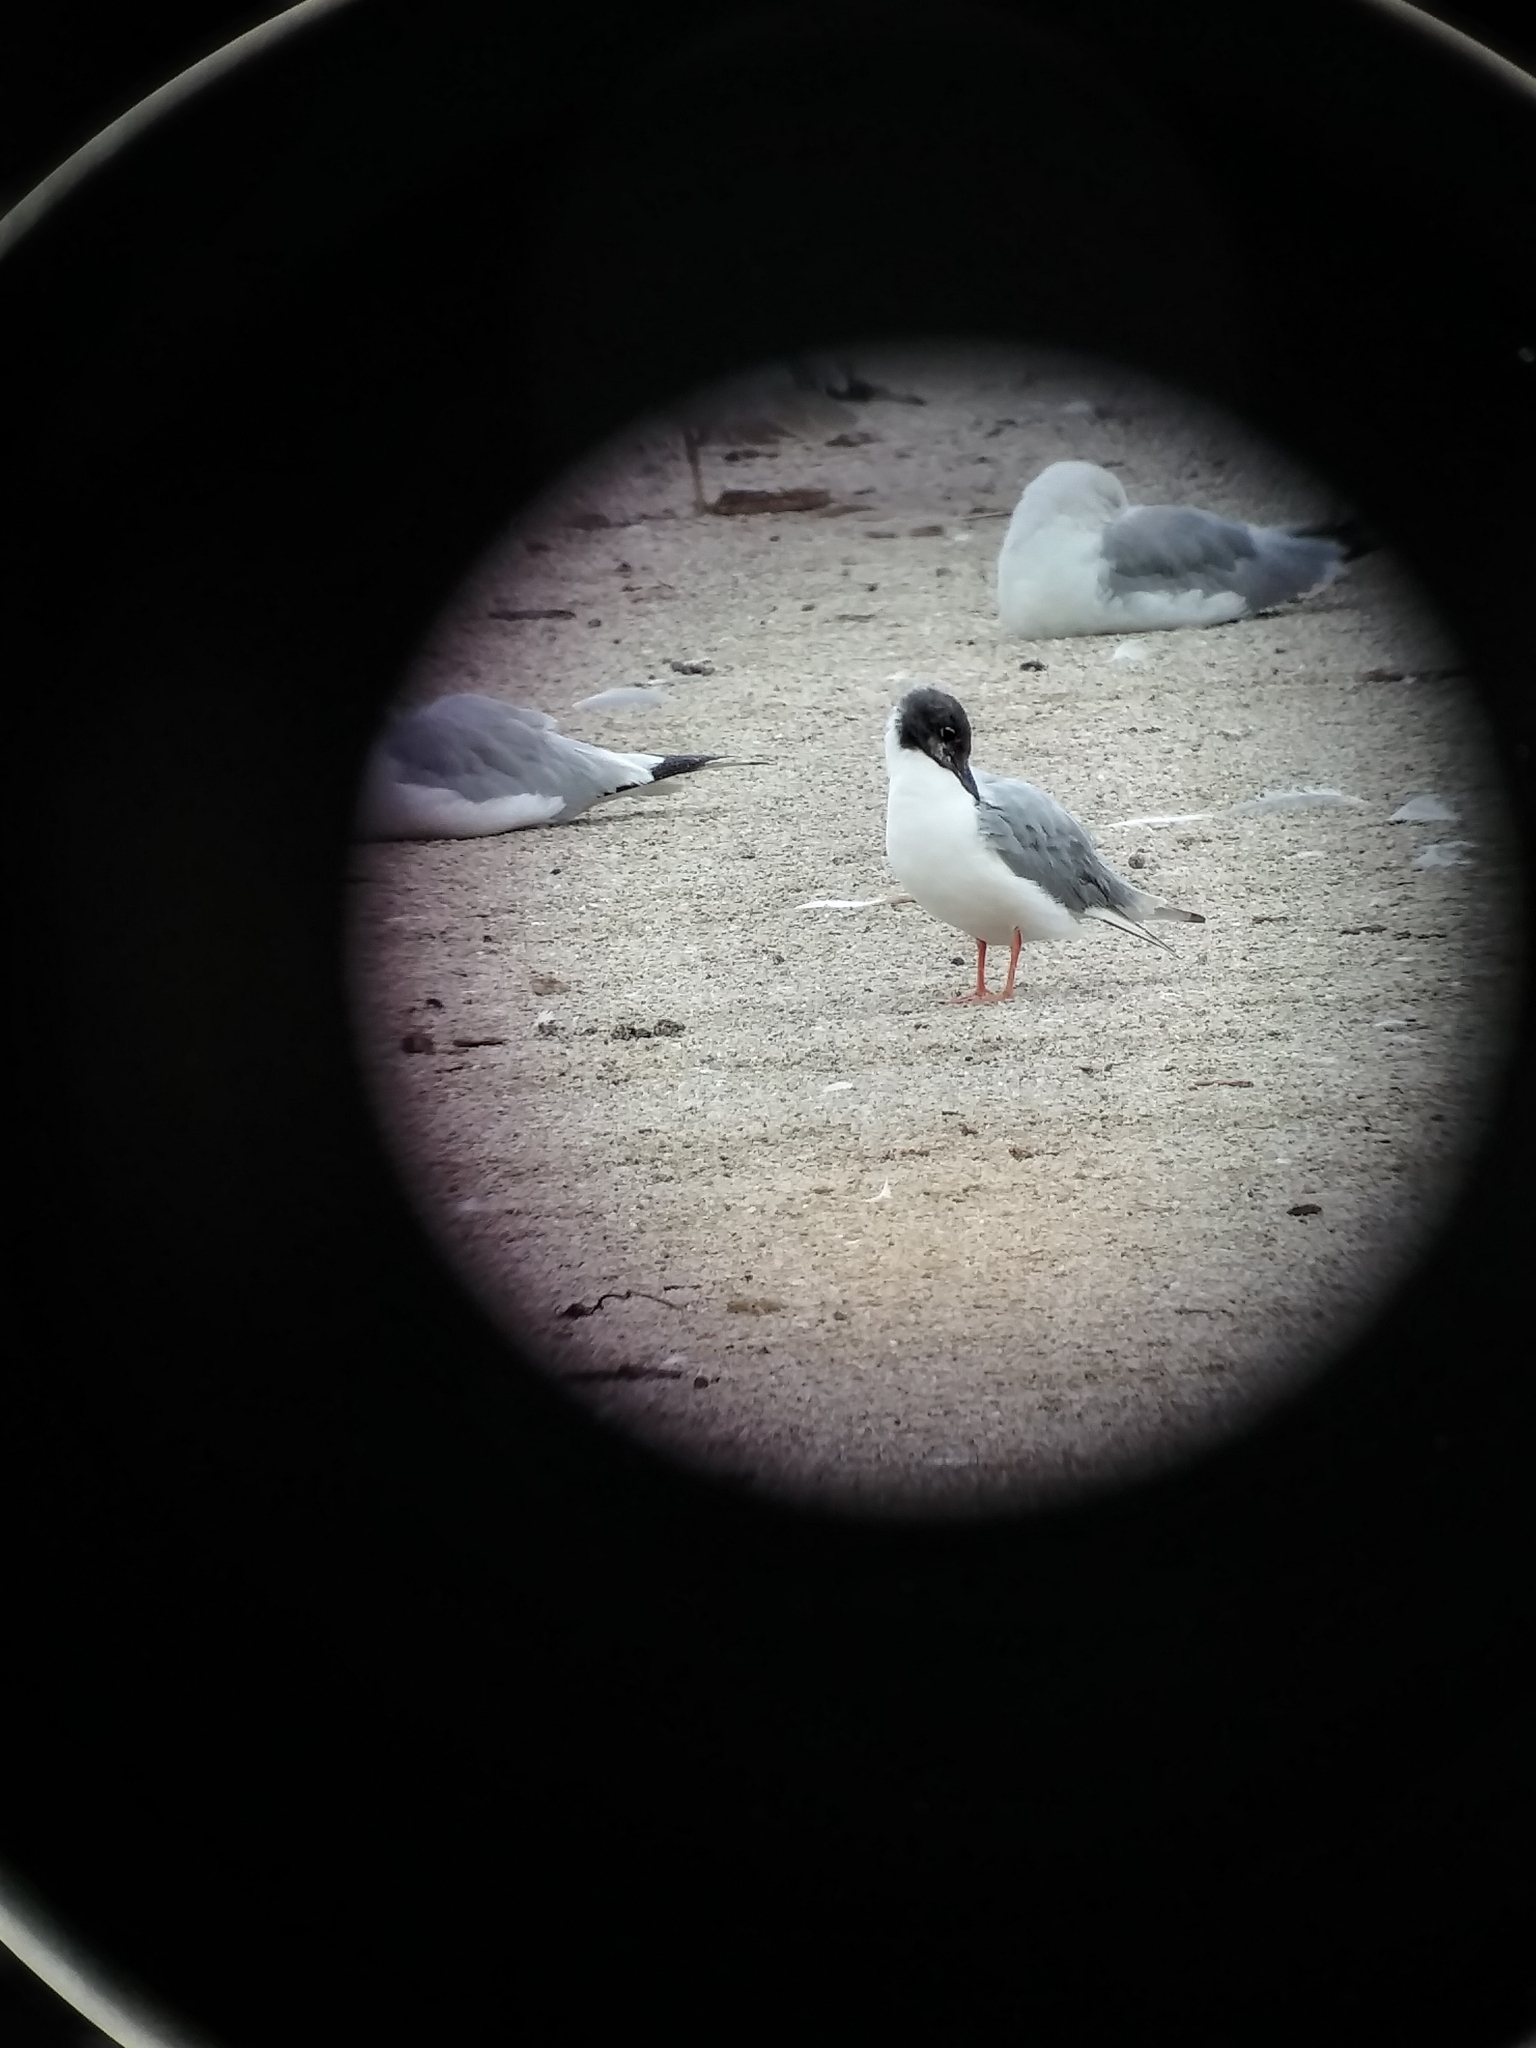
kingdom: Animalia
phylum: Chordata
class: Aves
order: Charadriiformes
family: Laridae
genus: Chroicocephalus
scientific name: Chroicocephalus philadelphia
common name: Bonaparte's gull
